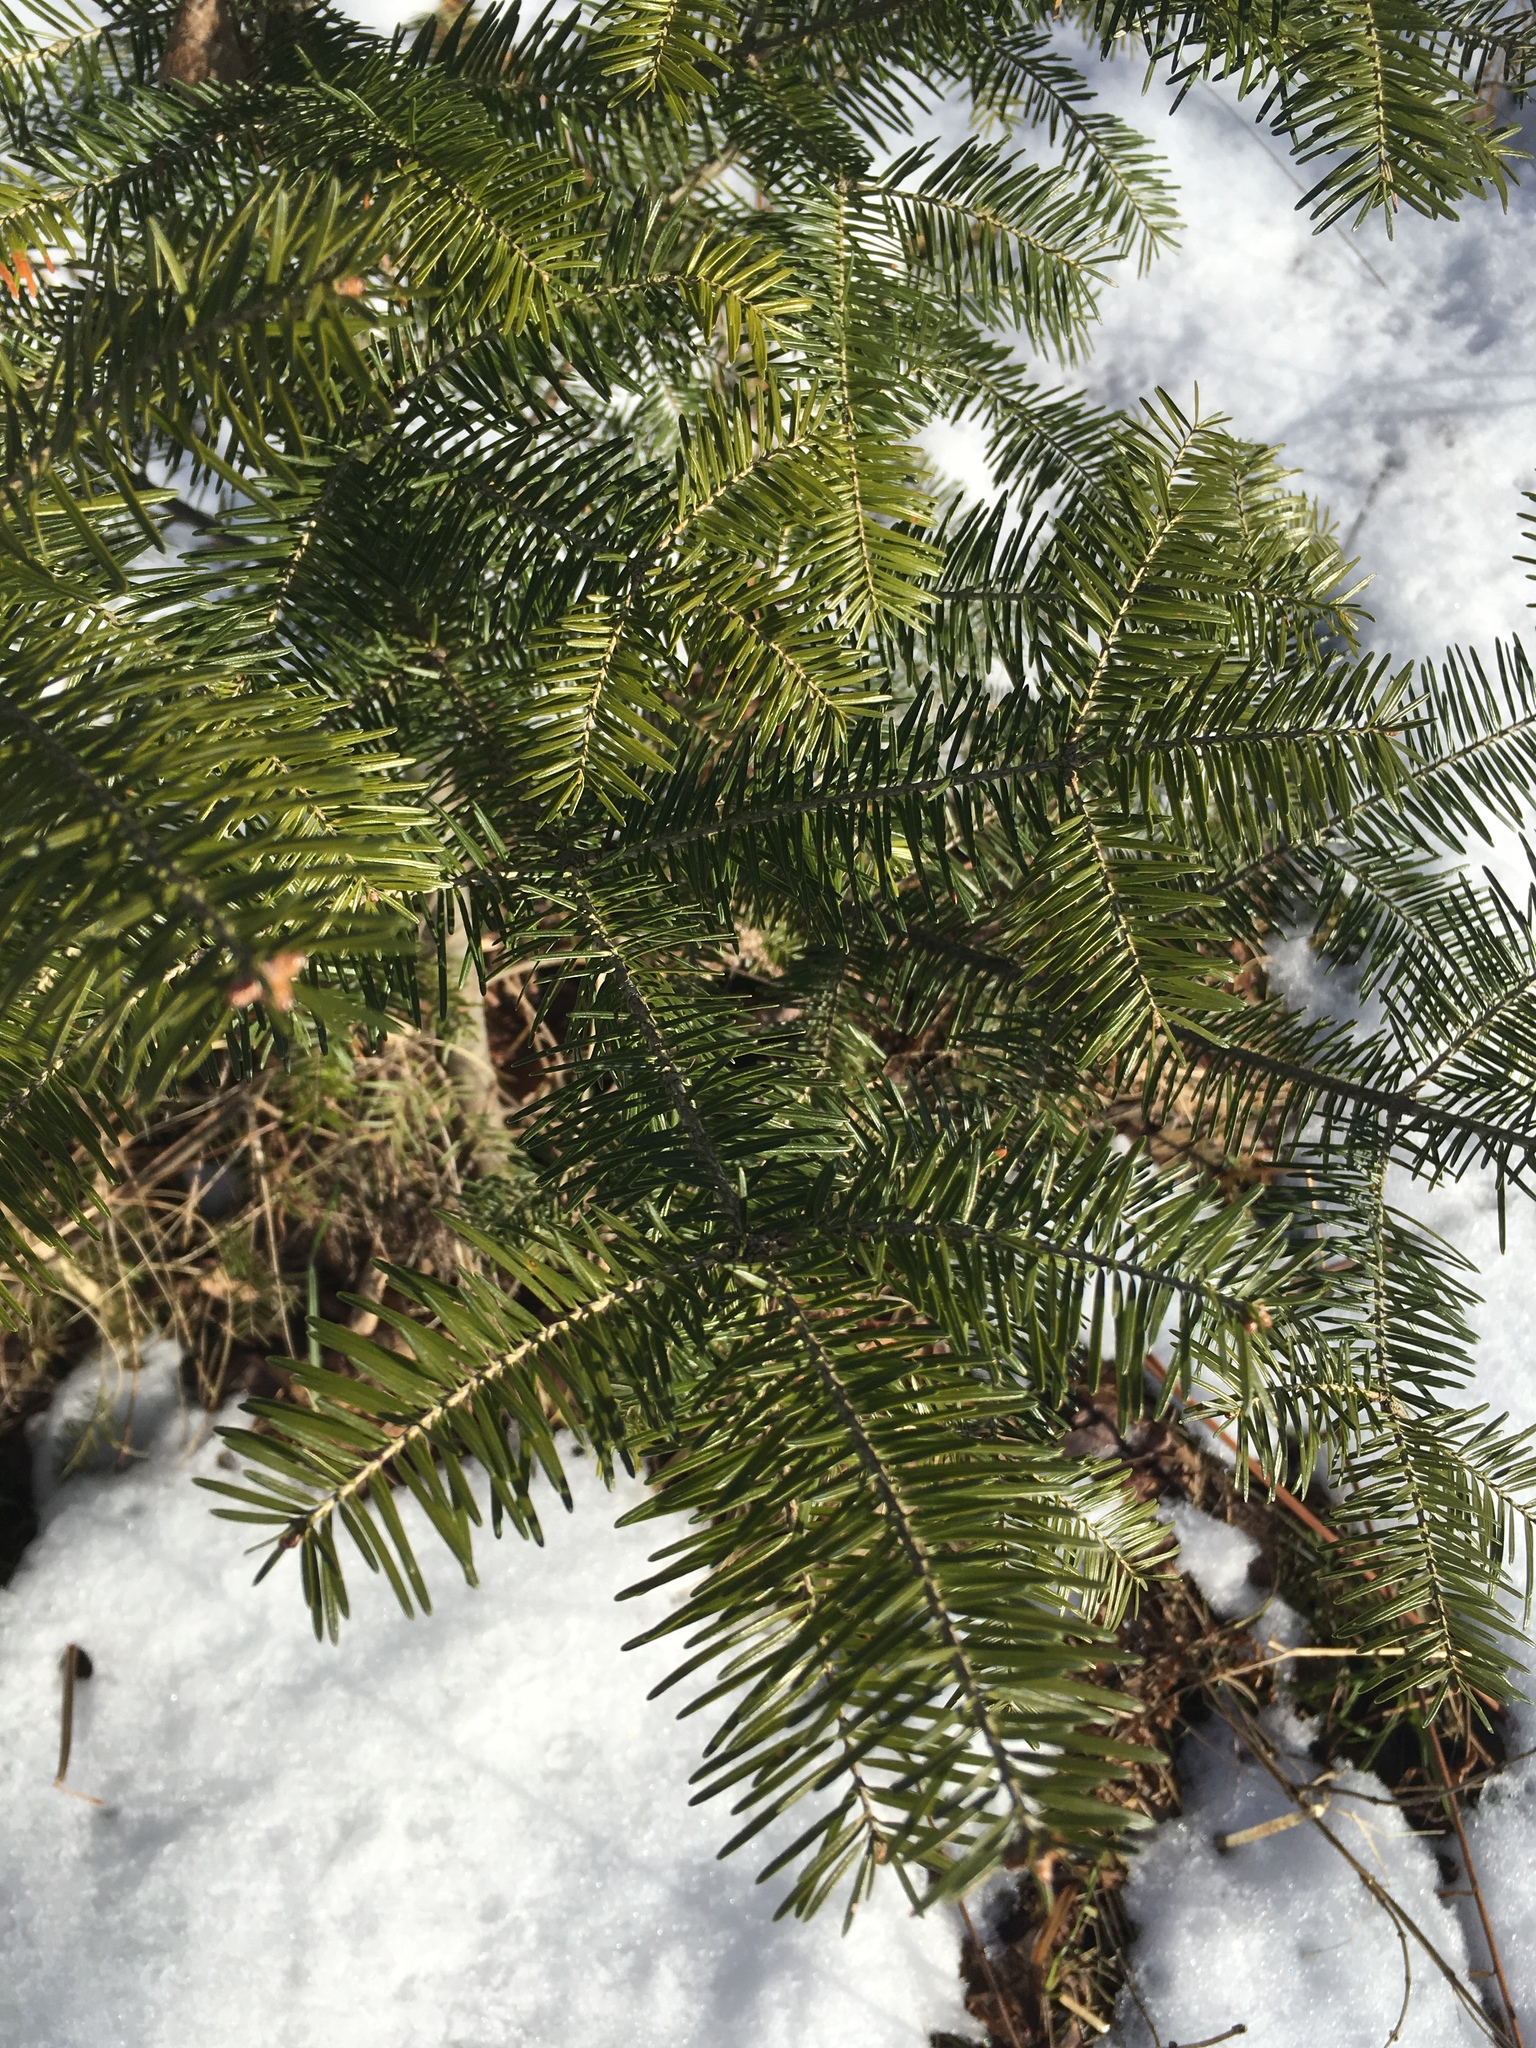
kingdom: Plantae
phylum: Tracheophyta
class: Pinopsida
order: Pinales
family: Pinaceae
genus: Abies
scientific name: Abies balsamea
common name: Balsam fir
